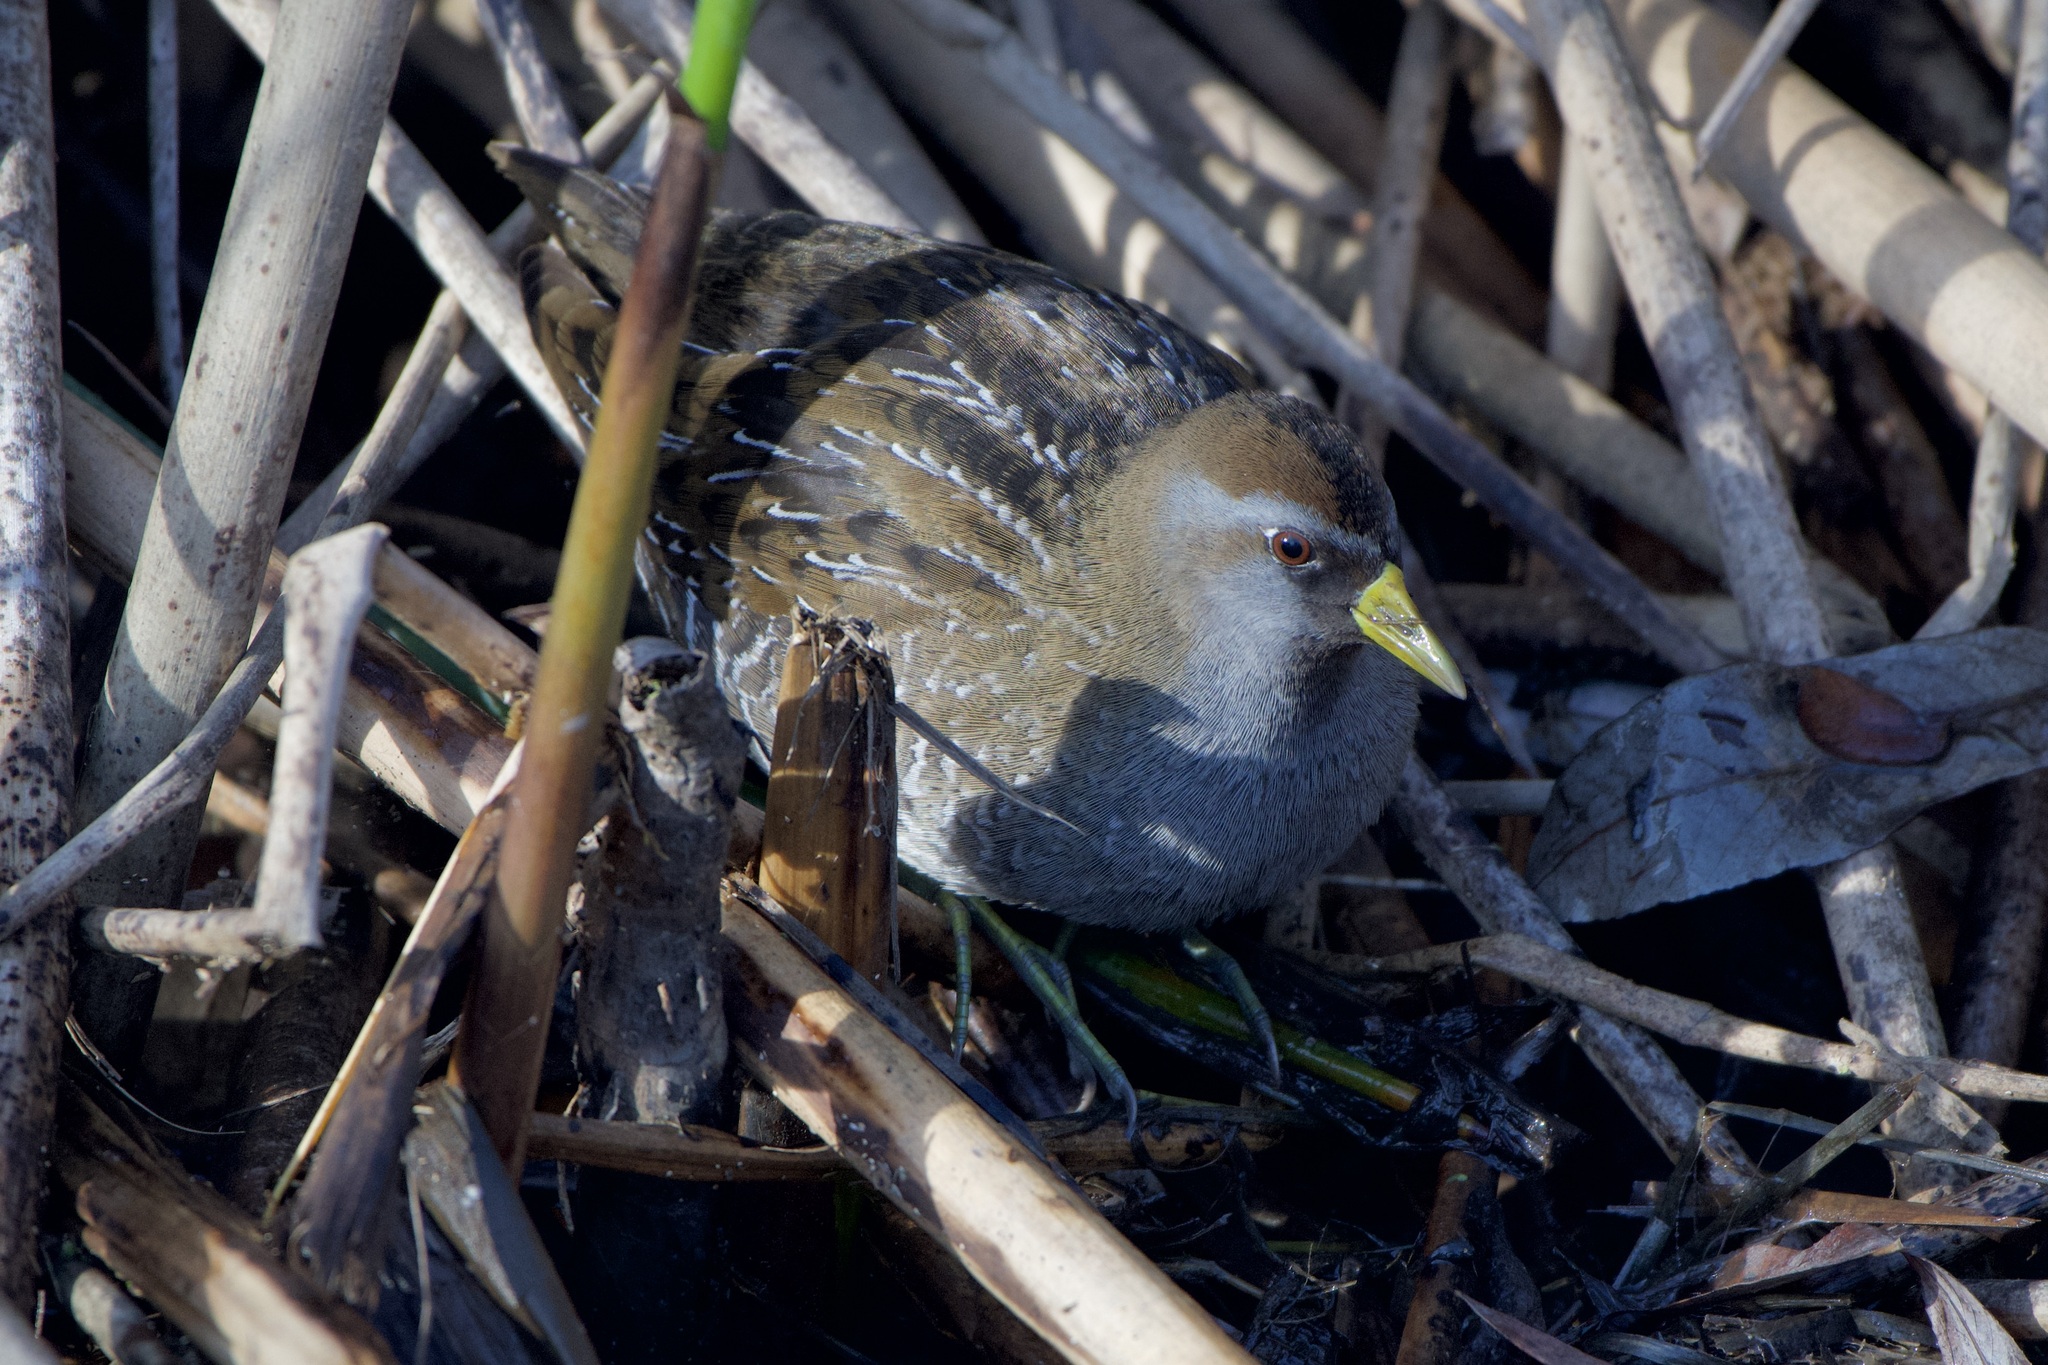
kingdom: Animalia
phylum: Chordata
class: Aves
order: Gruiformes
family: Rallidae
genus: Porzana
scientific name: Porzana carolina
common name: Sora
